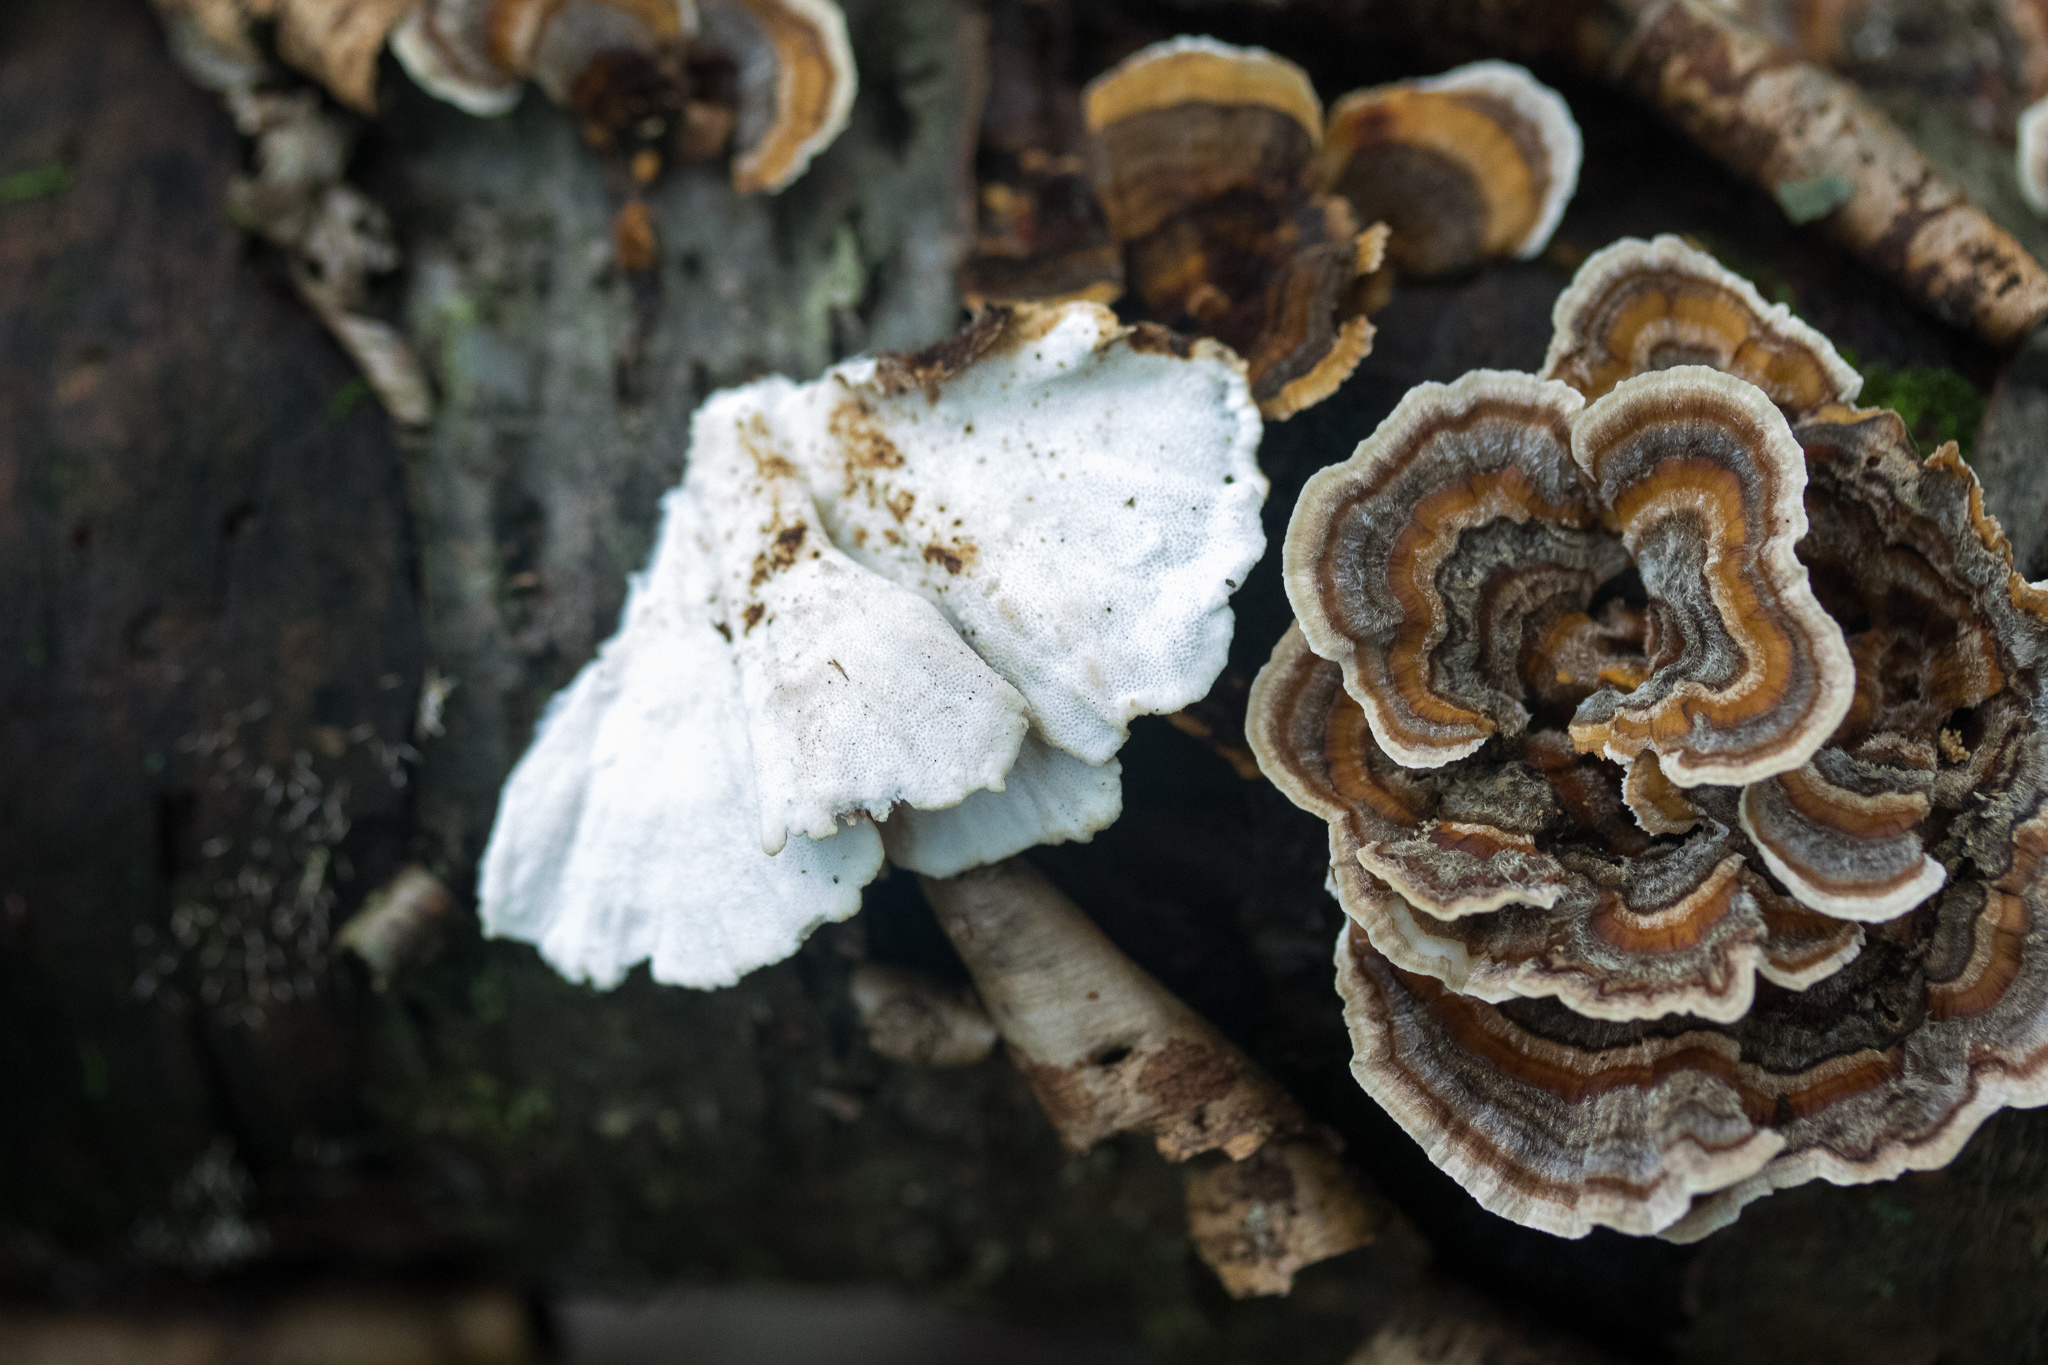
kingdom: Fungi
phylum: Basidiomycota
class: Agaricomycetes
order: Polyporales
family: Polyporaceae
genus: Trametes
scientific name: Trametes versicolor
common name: Turkeytail
